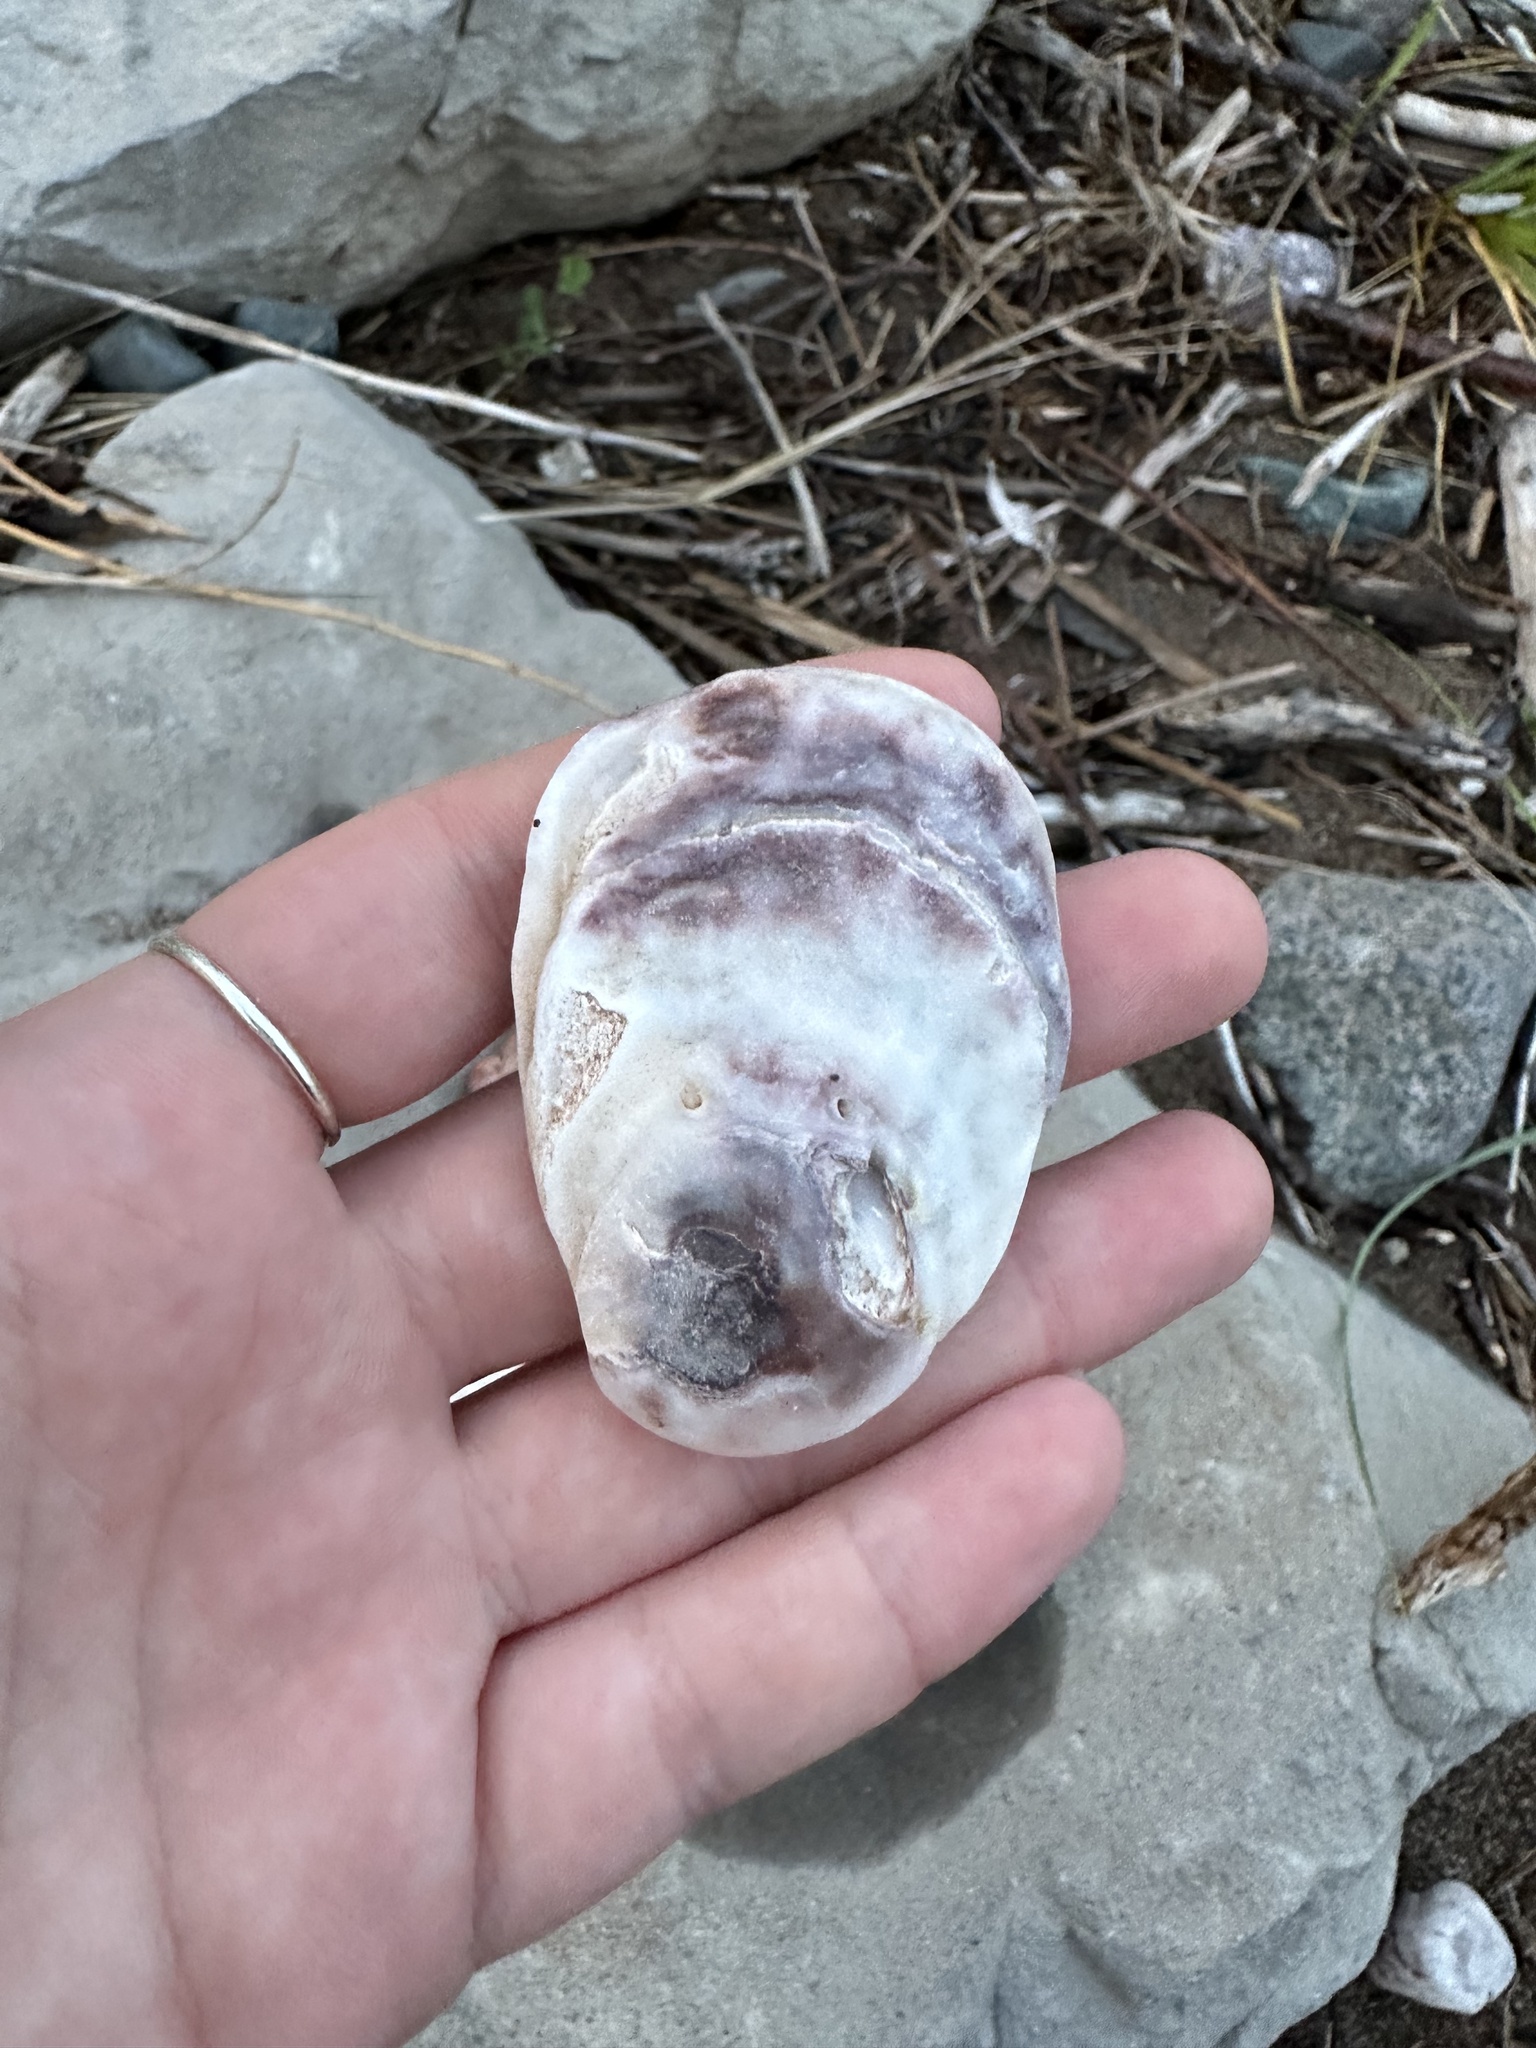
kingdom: Animalia
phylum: Mollusca
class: Bivalvia
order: Ostreida
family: Ostreidae
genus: Crassostrea
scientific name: Crassostrea virginica
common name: American oyster
